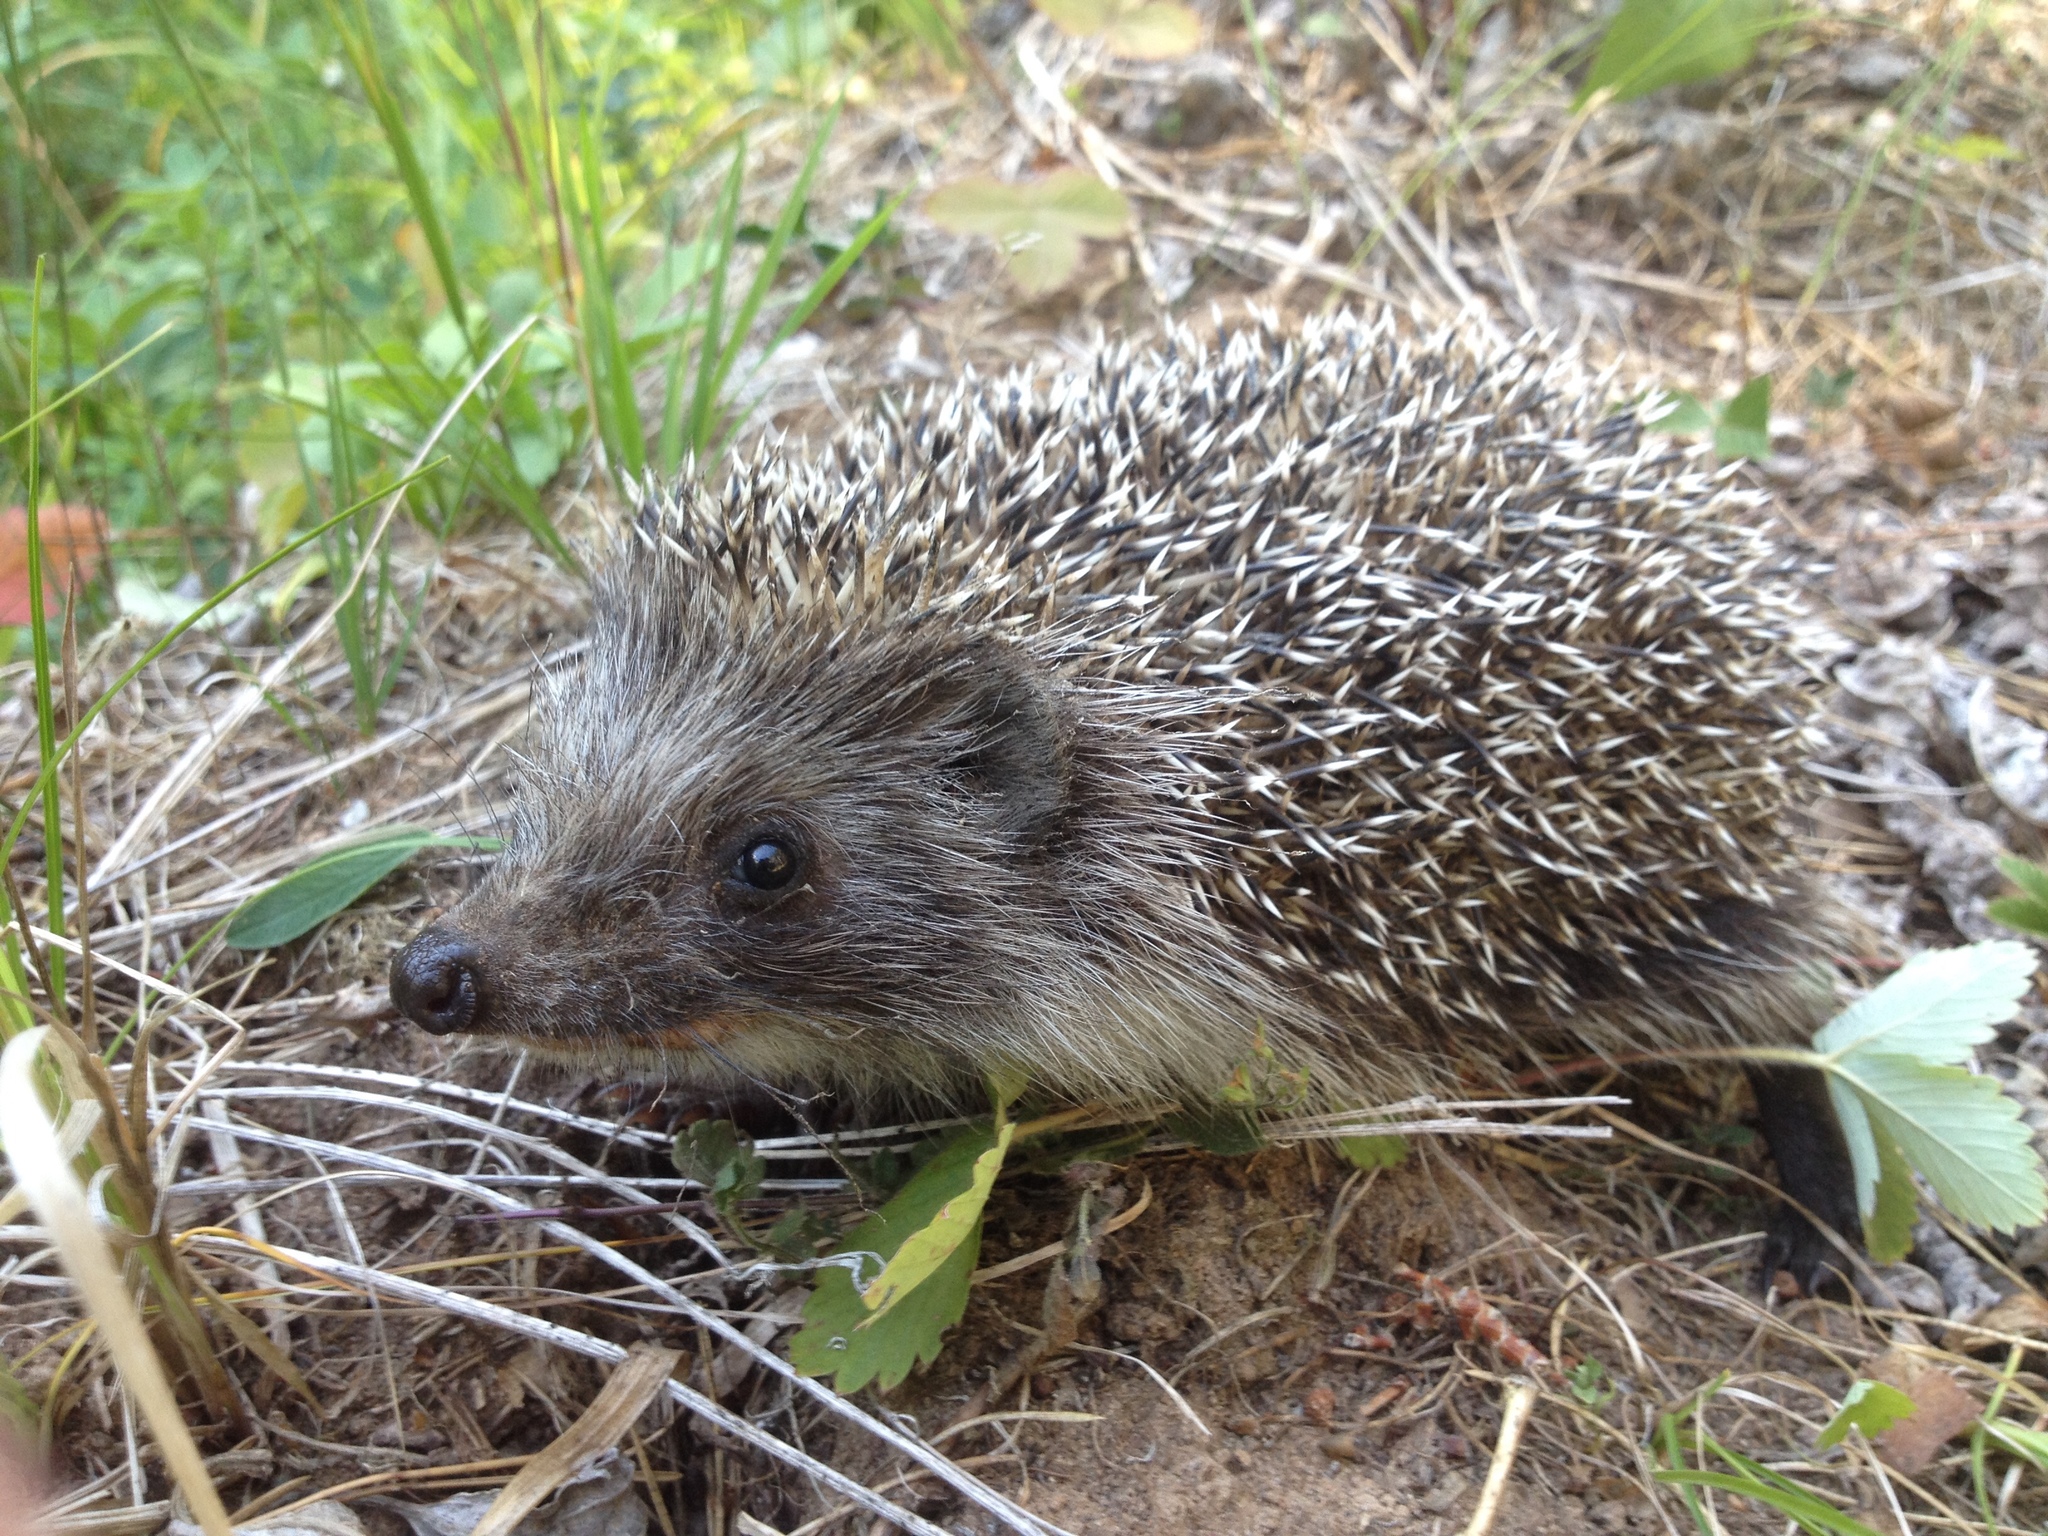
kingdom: Animalia
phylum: Chordata
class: Mammalia
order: Erinaceomorpha
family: Erinaceidae
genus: Erinaceus
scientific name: Erinaceus roumanicus
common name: Northern white-breasted hedgehog
